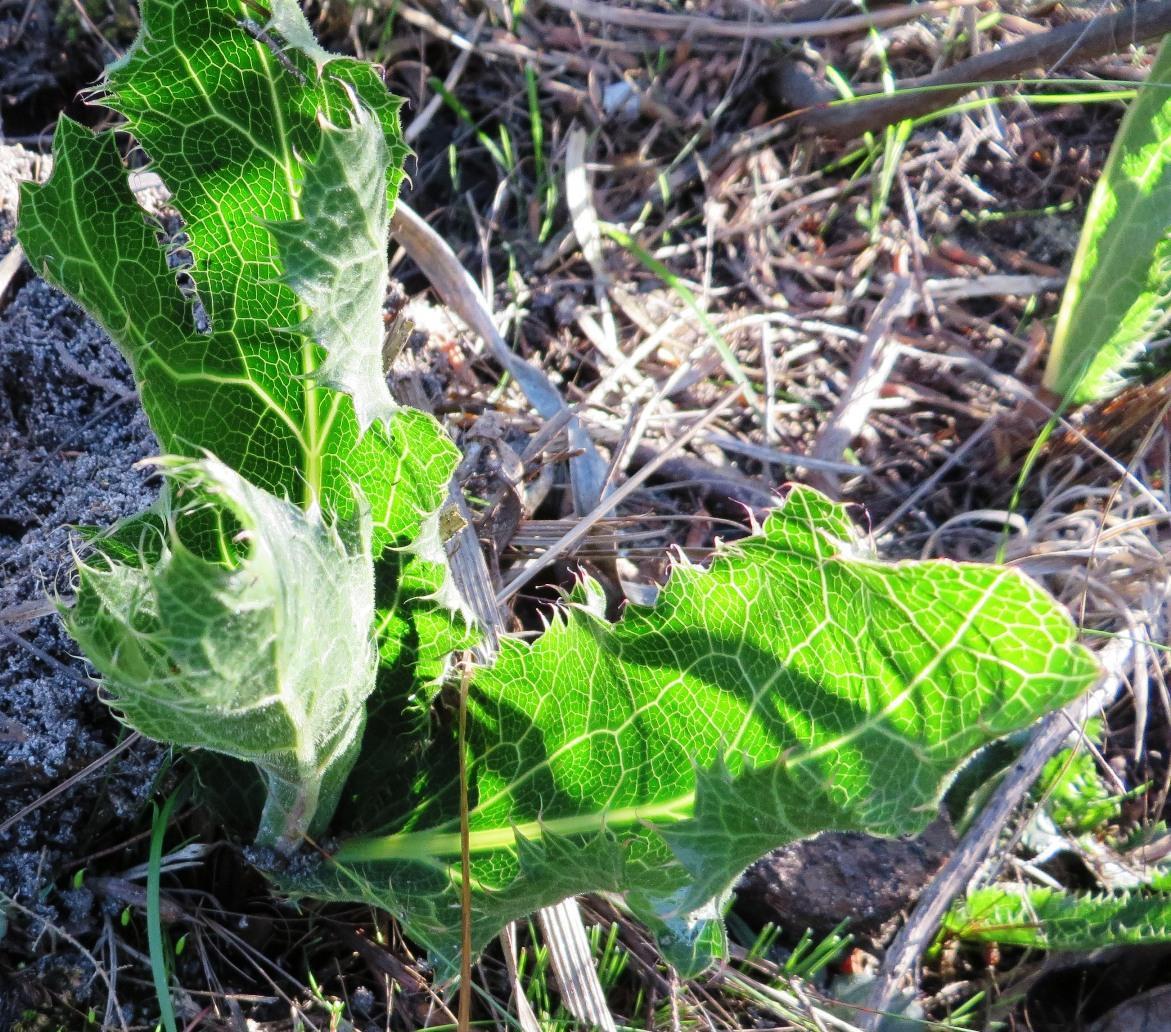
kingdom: Plantae
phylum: Tracheophyta
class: Magnoliopsida
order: Apiales
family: Apiaceae
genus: Lichtensteinia
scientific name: Lichtensteinia lacera
